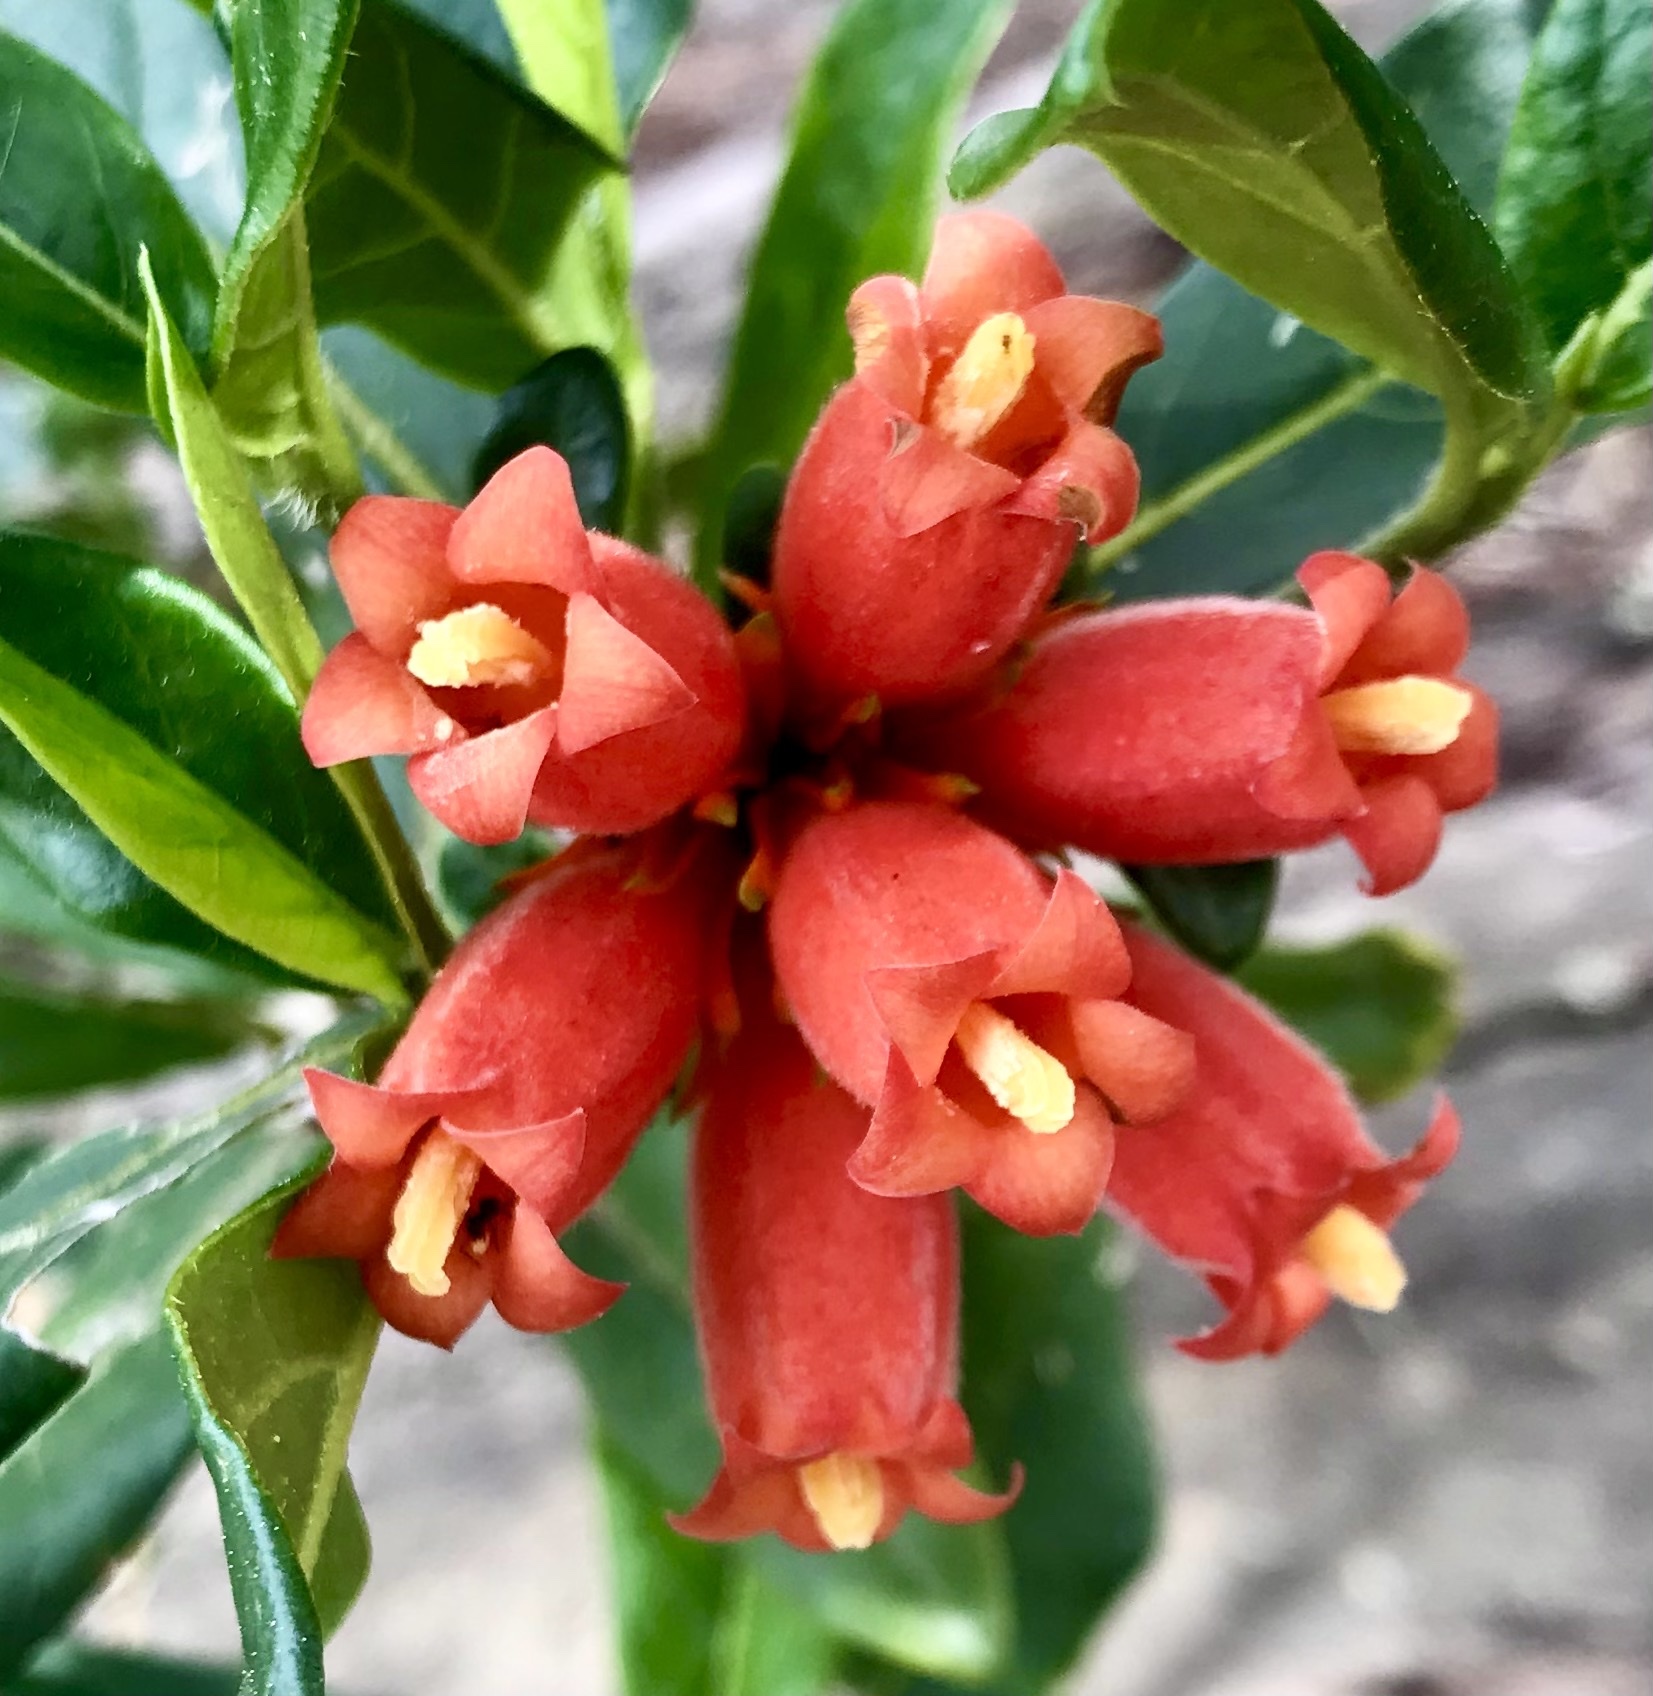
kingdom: Plantae
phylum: Tracheophyta
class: Magnoliopsida
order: Gentianales
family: Rubiaceae
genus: Burchellia
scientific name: Burchellia bubalina
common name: Wild pomegranate
